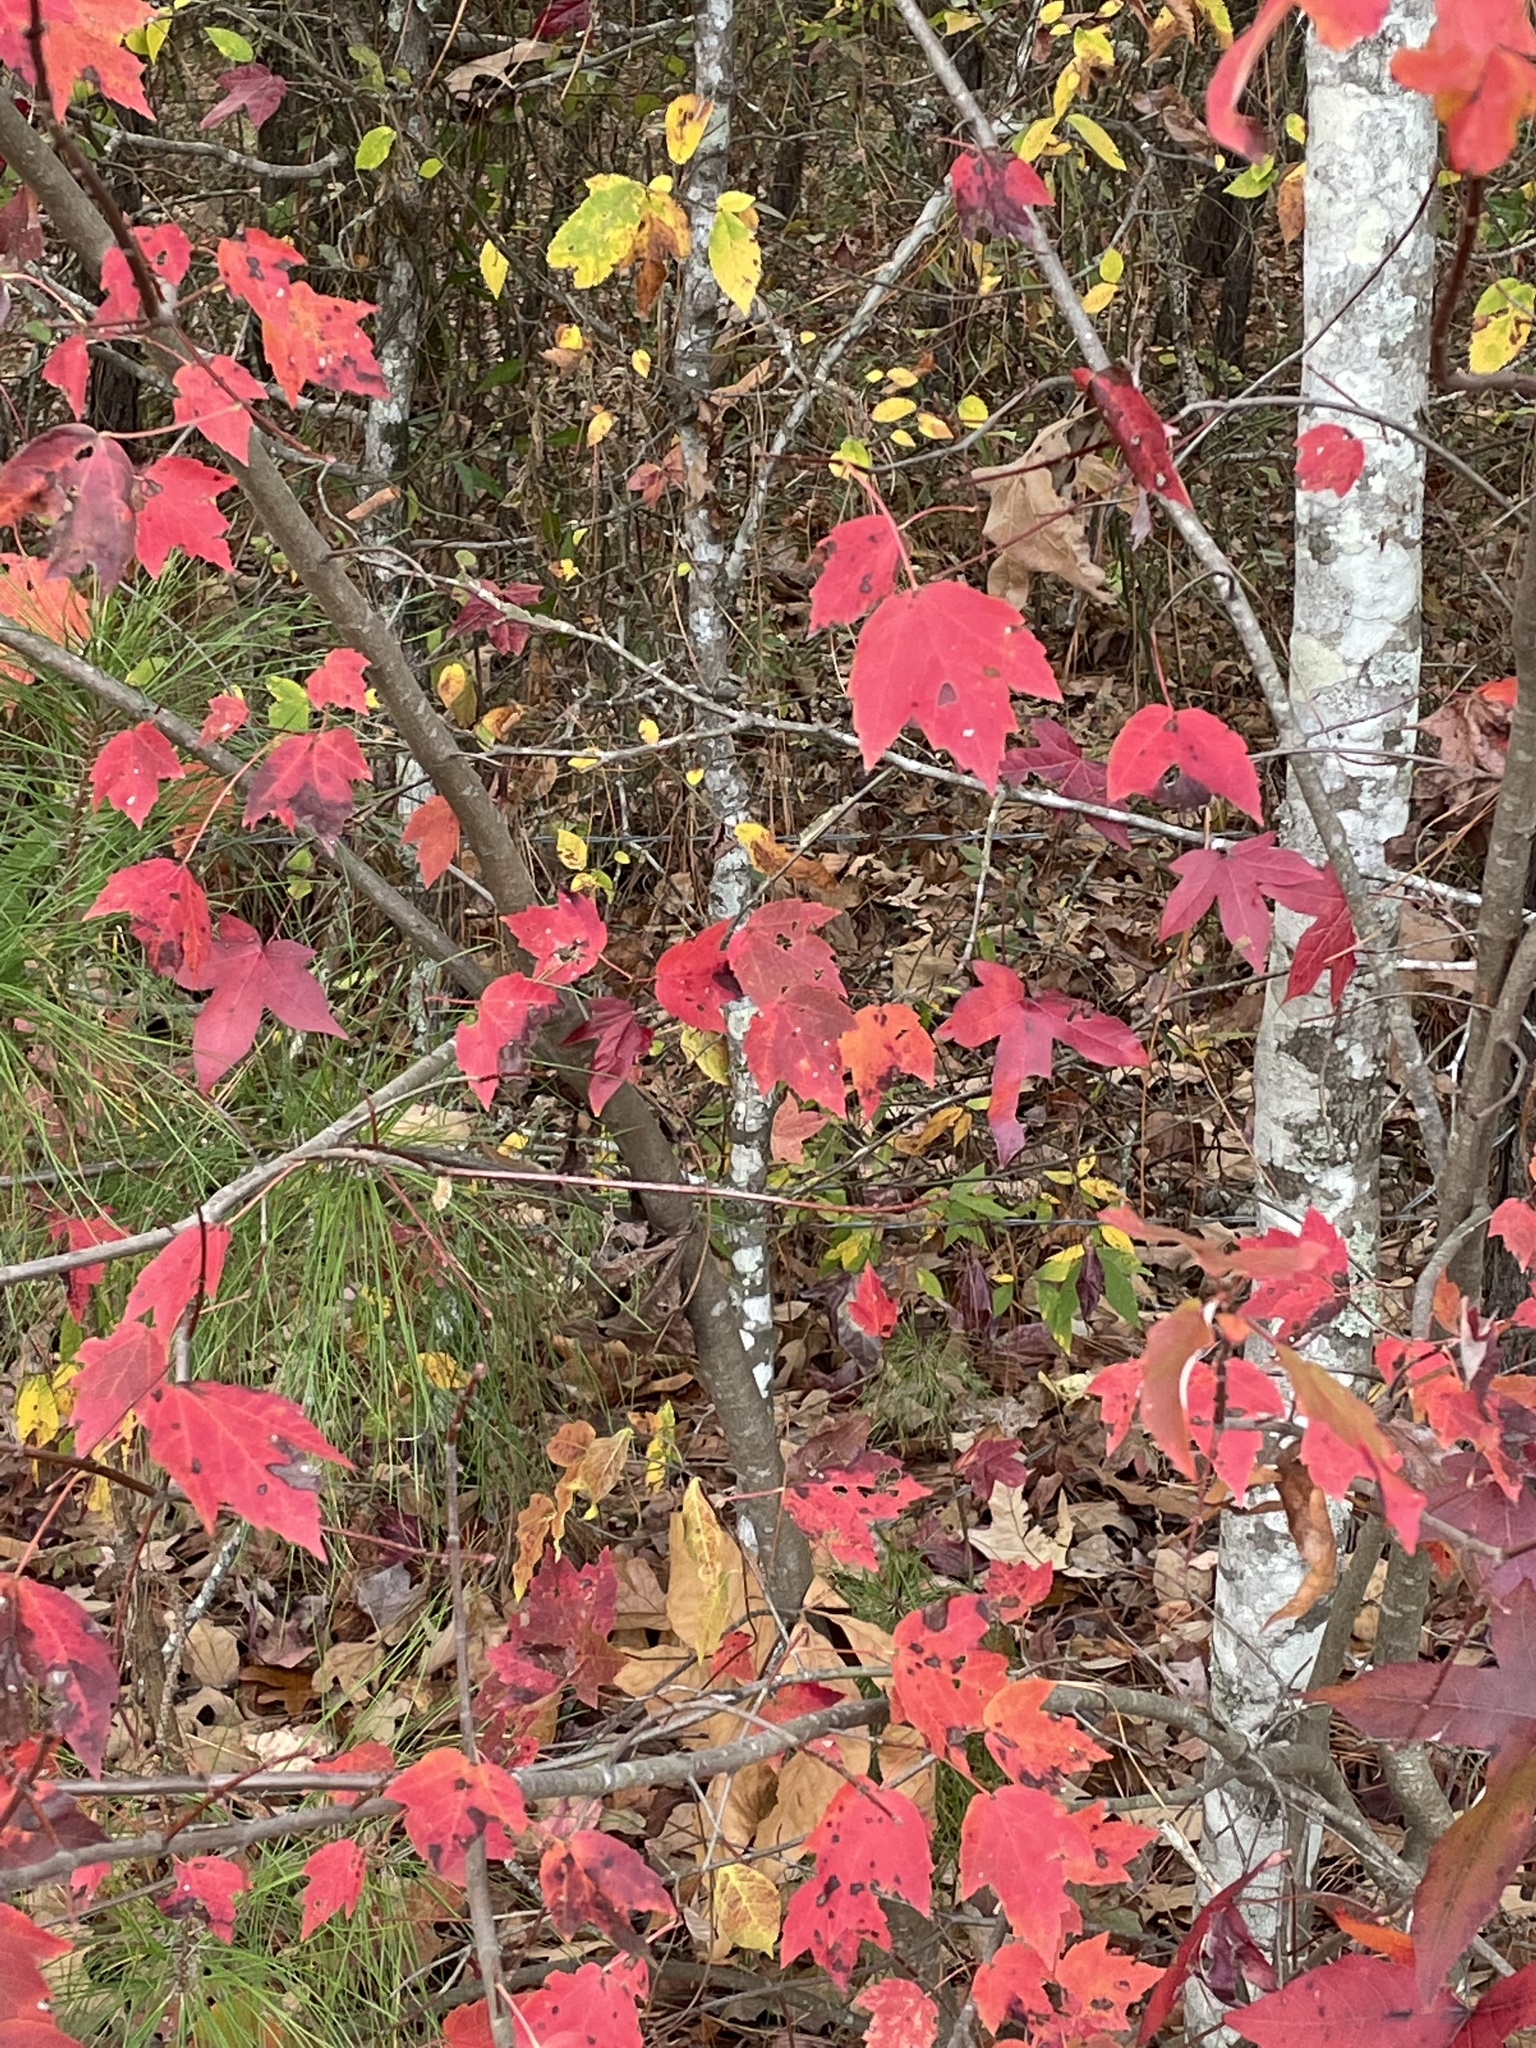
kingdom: Plantae
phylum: Tracheophyta
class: Magnoliopsida
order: Sapindales
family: Sapindaceae
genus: Acer
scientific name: Acer rubrum
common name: Red maple
